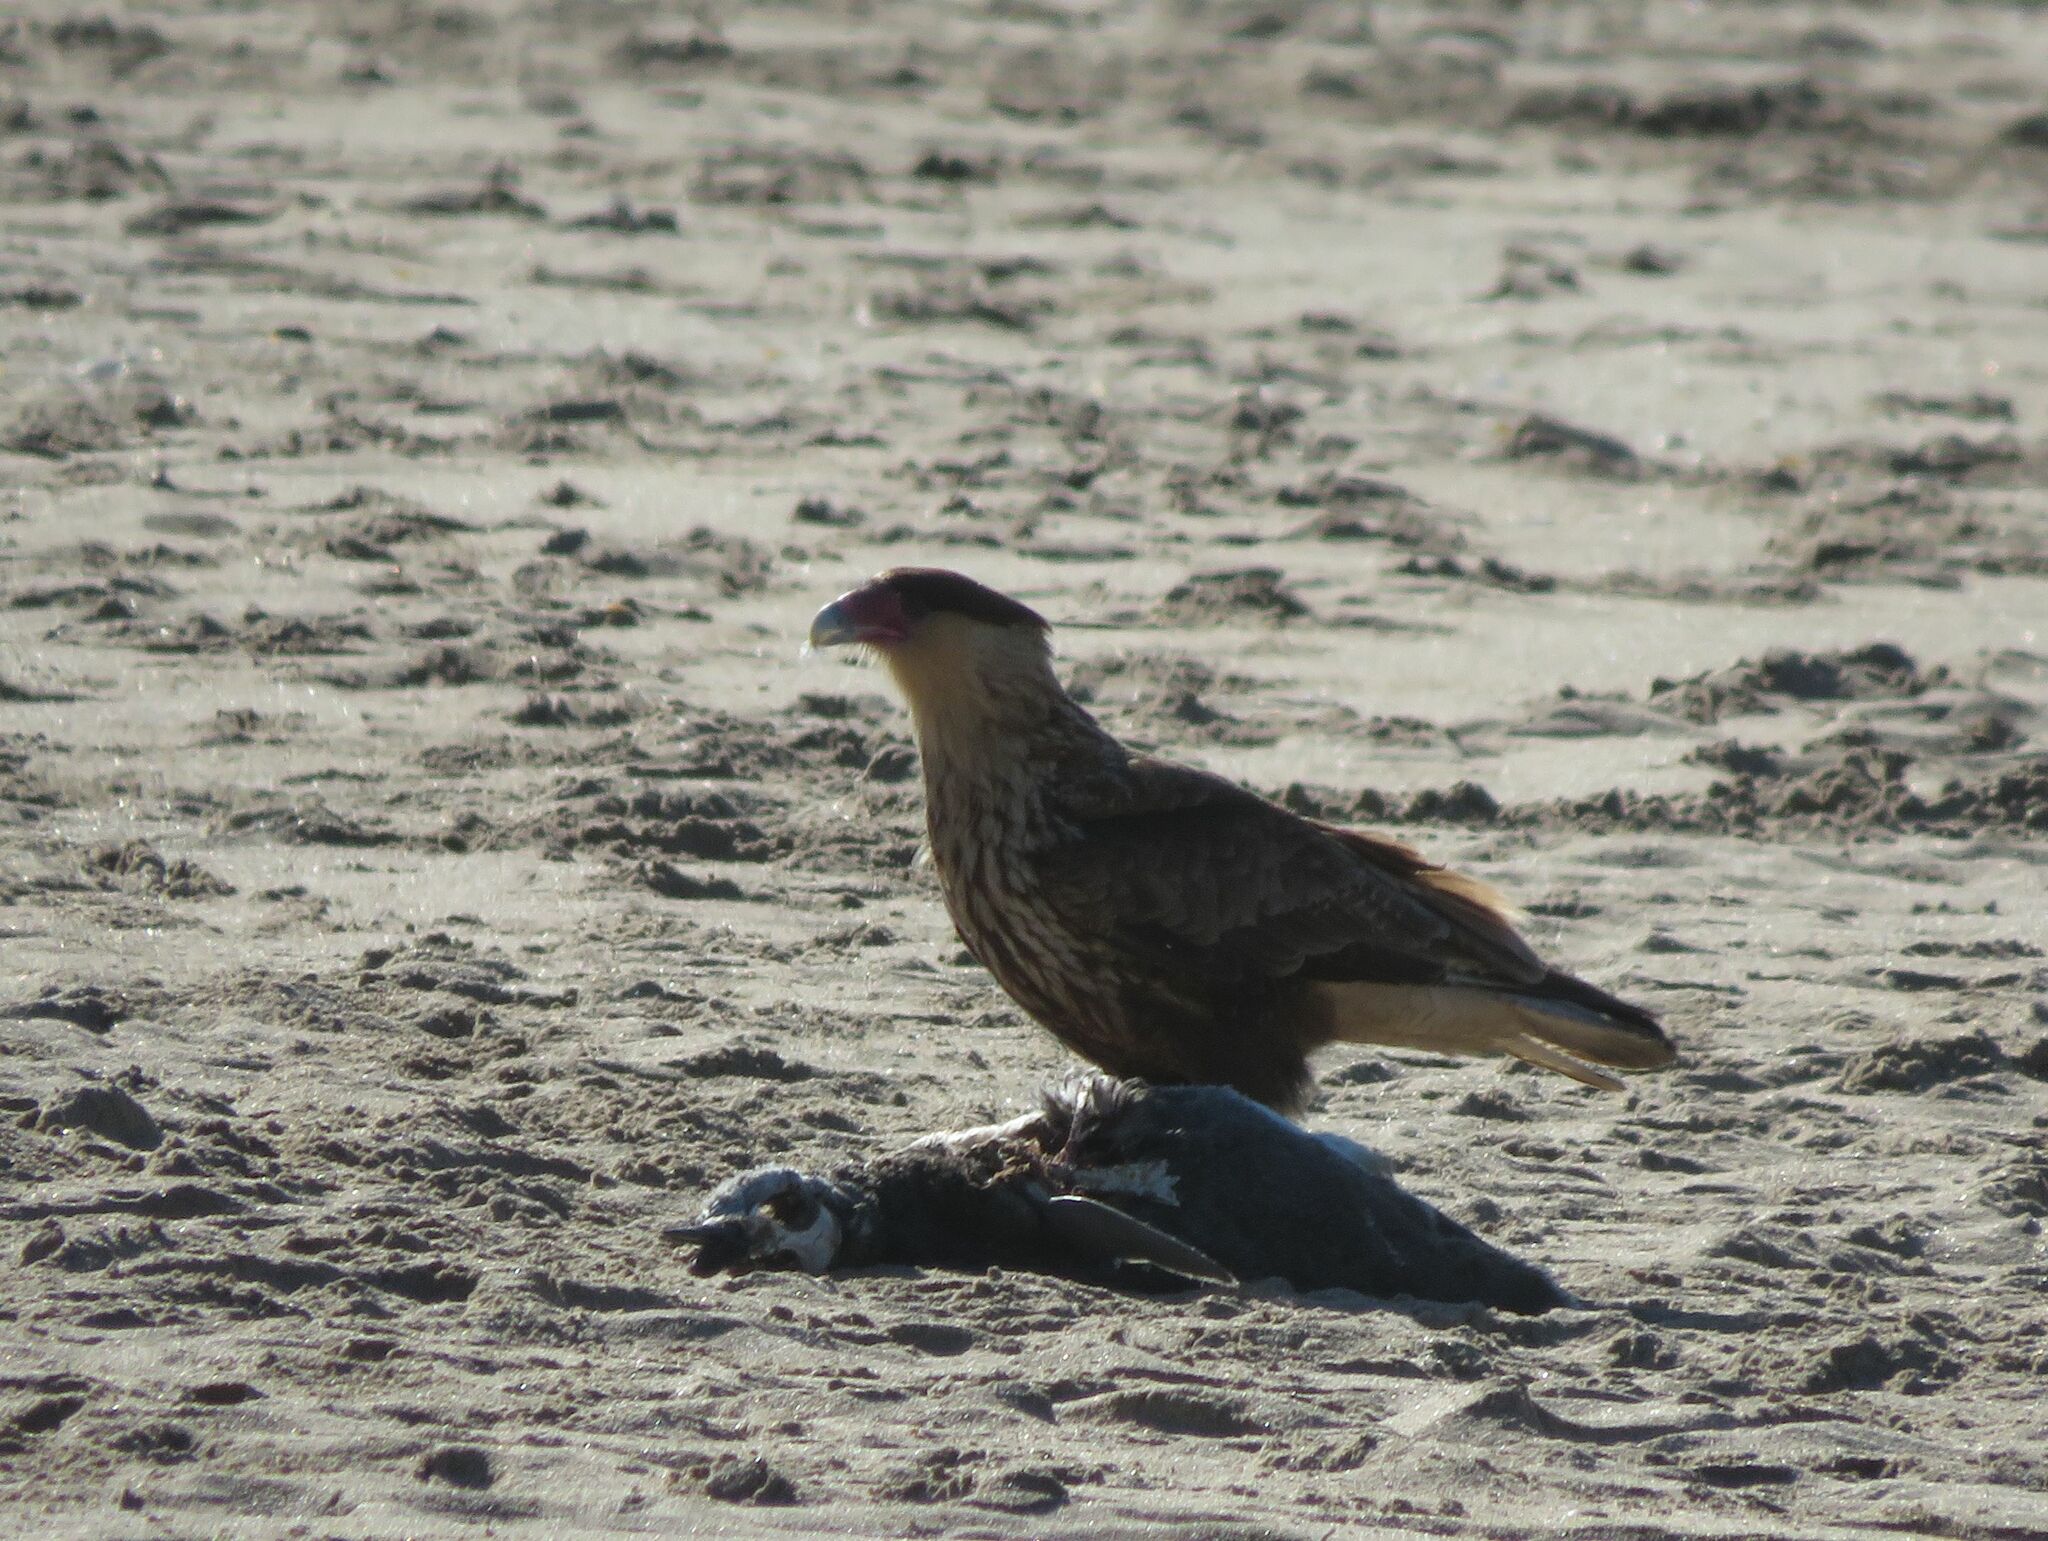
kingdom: Animalia
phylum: Chordata
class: Aves
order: Falconiformes
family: Falconidae
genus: Caracara
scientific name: Caracara plancus
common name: Southern caracara
